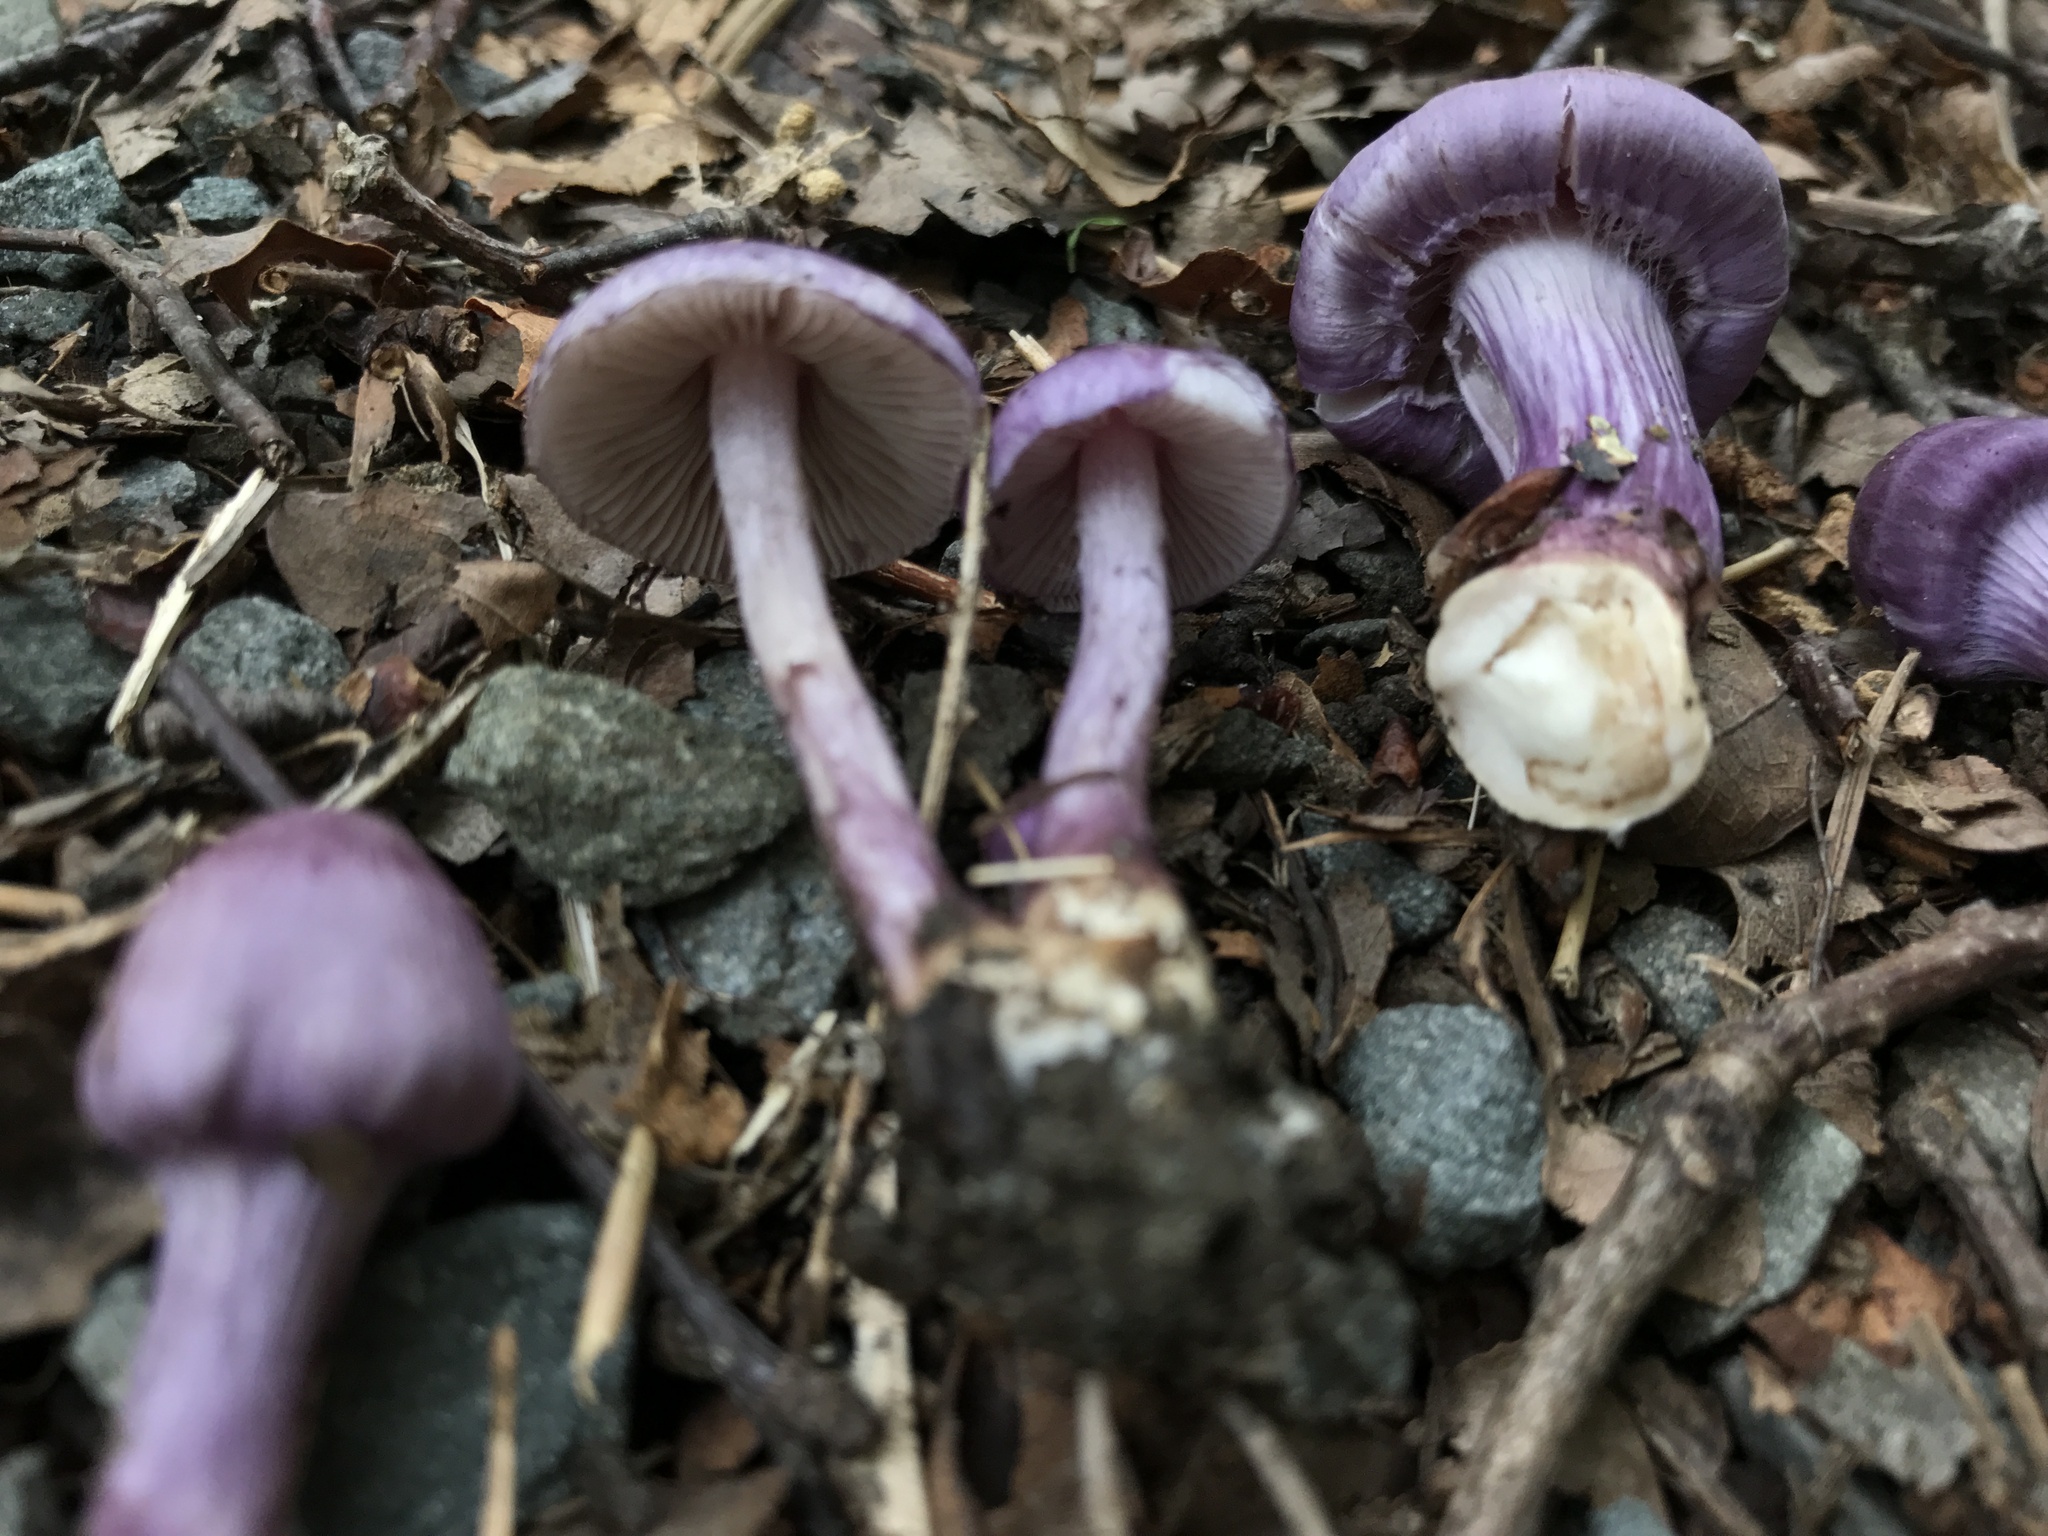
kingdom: Fungi
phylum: Basidiomycota
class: Agaricomycetes
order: Agaricales
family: Inocybaceae
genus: Inocybe
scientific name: Inocybe geophylla
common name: White fibrecap
